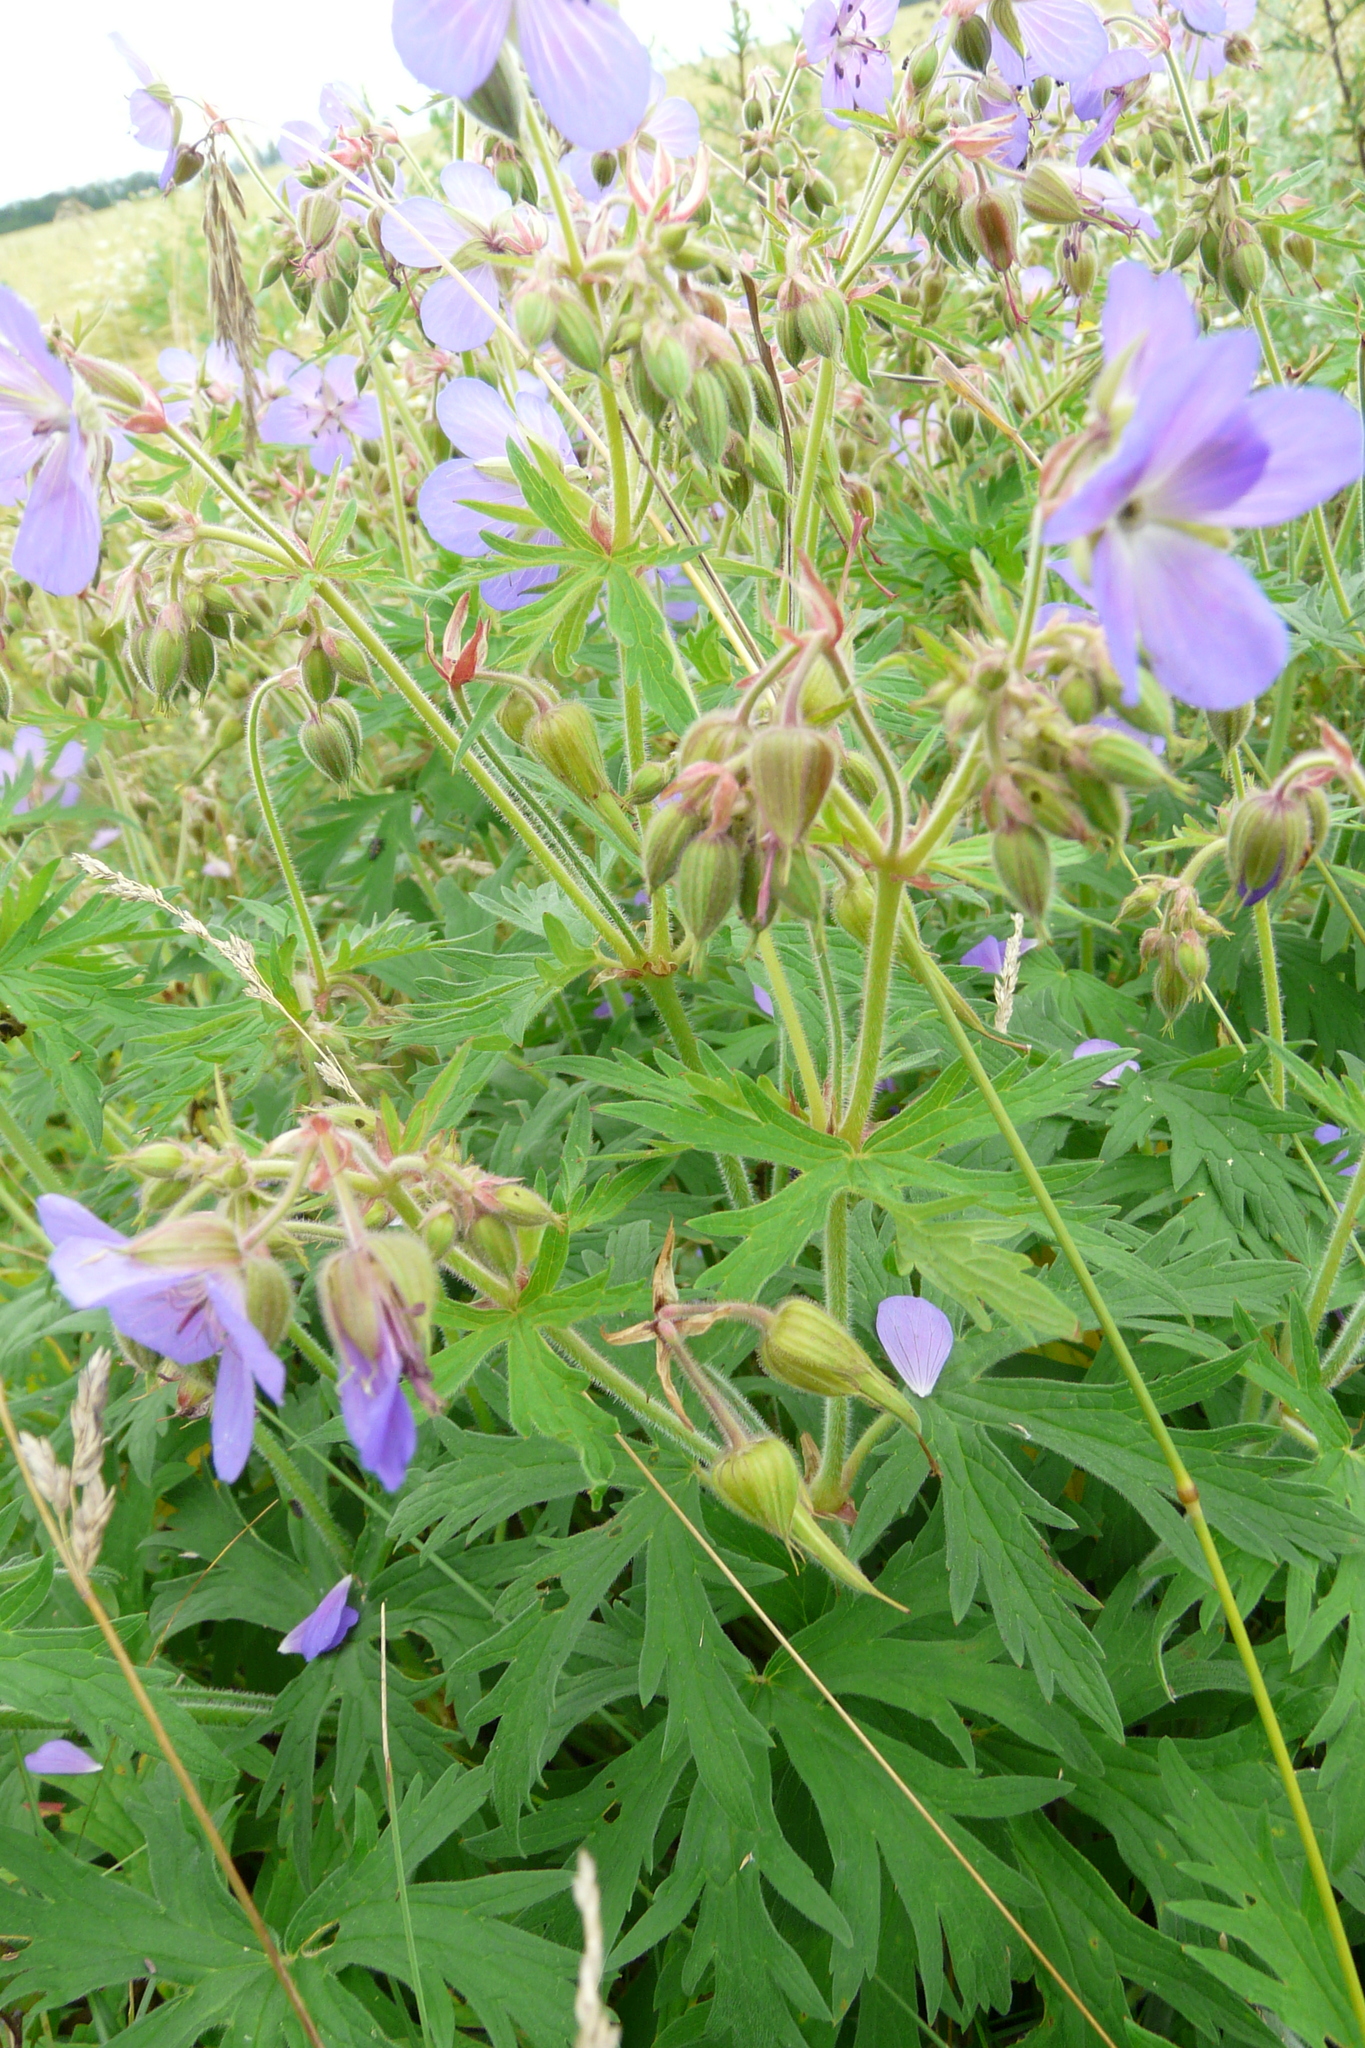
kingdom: Plantae
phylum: Tracheophyta
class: Magnoliopsida
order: Geraniales
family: Geraniaceae
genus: Geranium
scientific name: Geranium pratense
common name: Meadow crane's-bill
